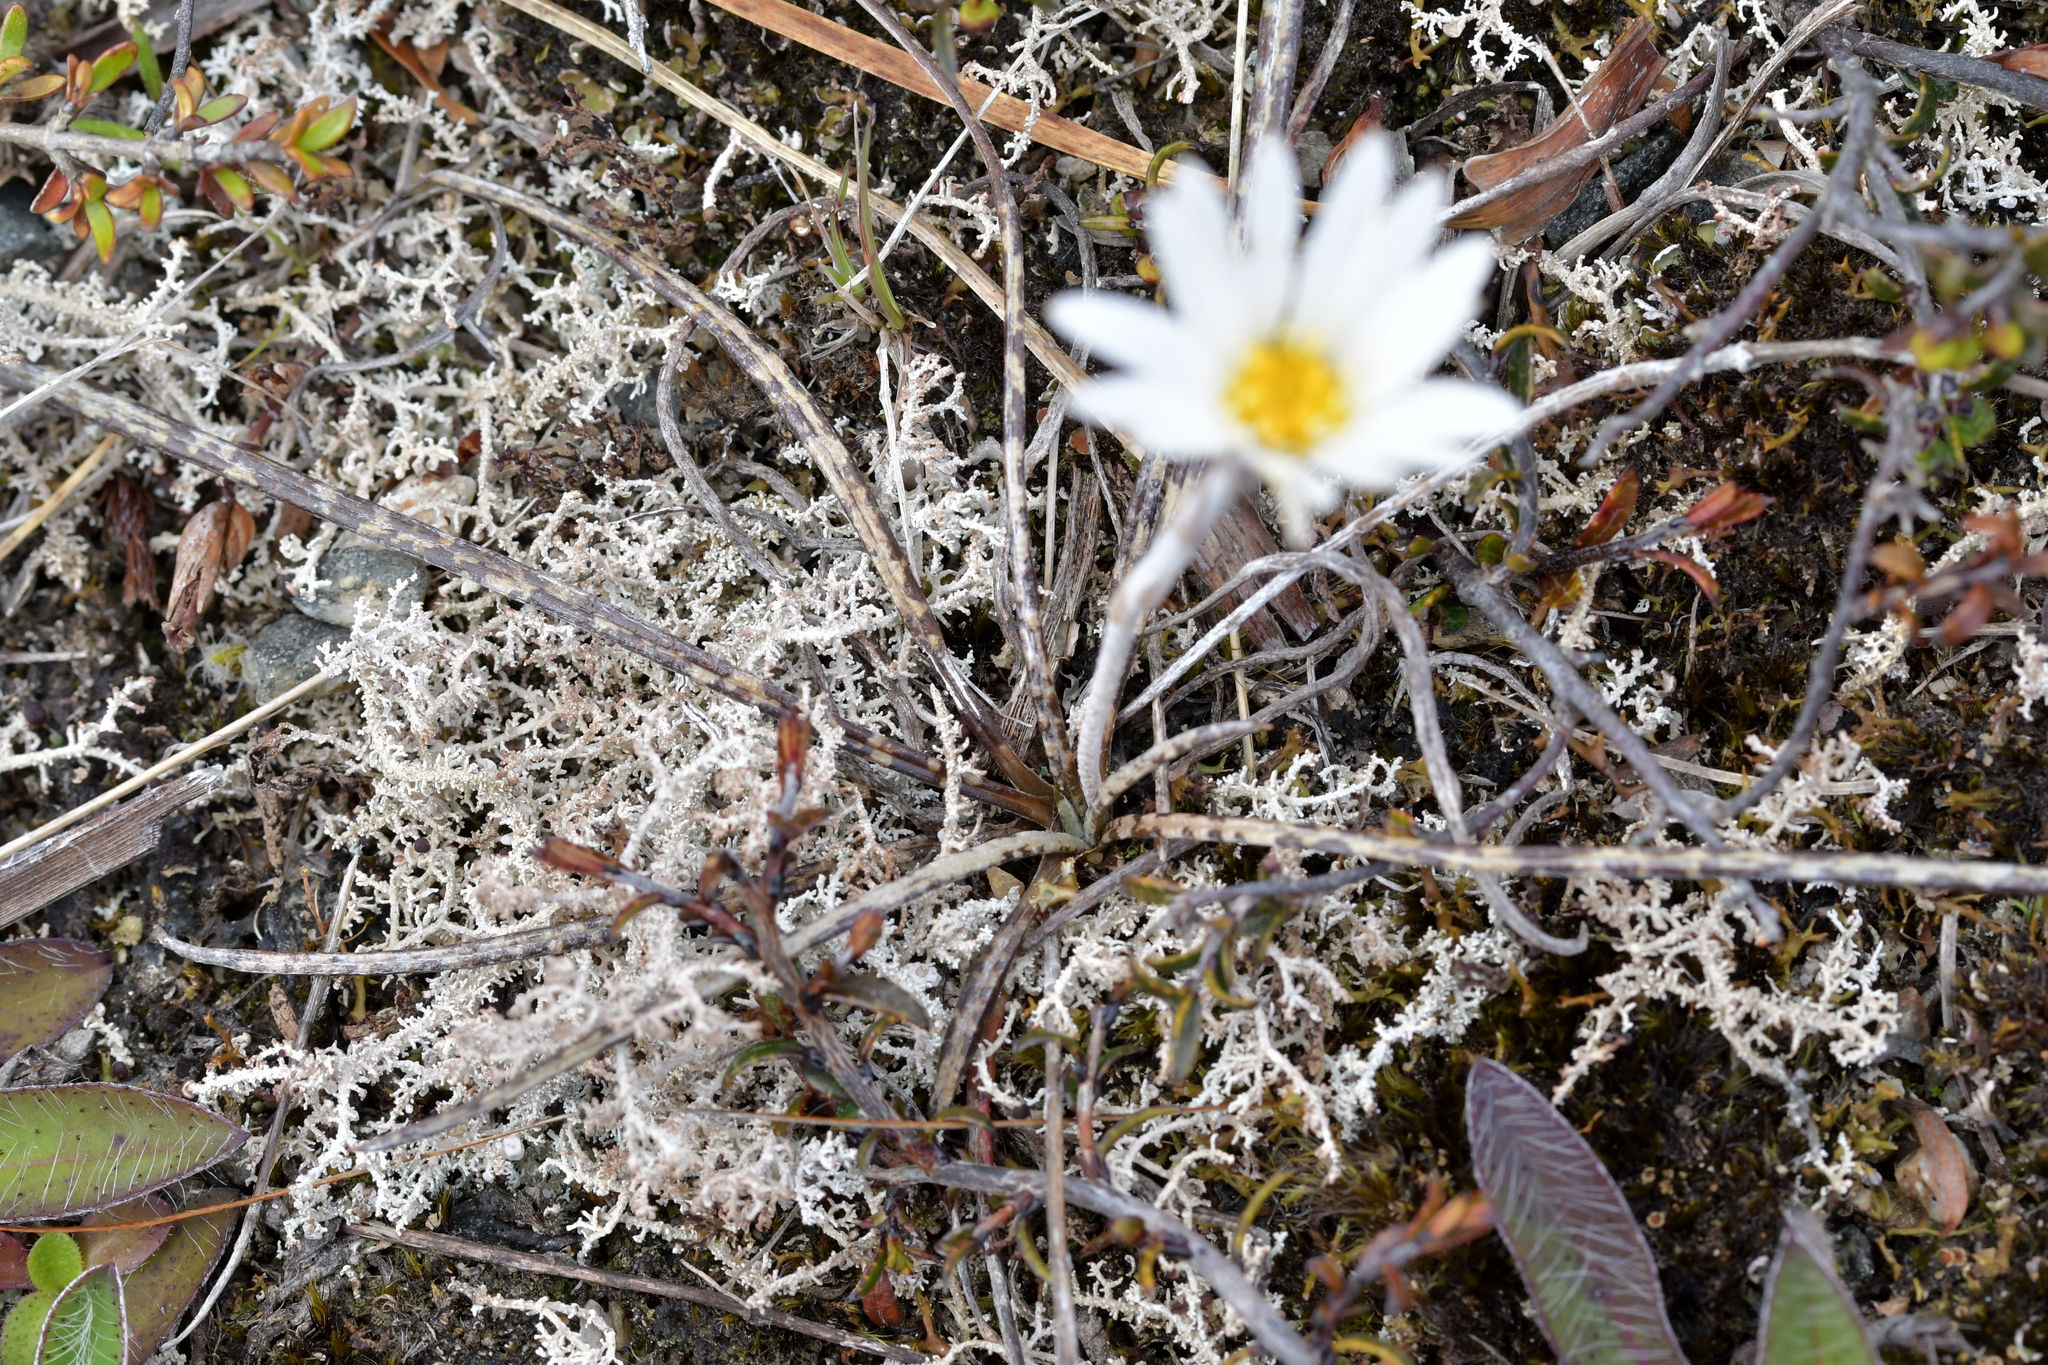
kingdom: Plantae
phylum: Tracheophyta
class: Magnoliopsida
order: Asterales
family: Asteraceae
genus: Celmisia
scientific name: Celmisia gracilenta
